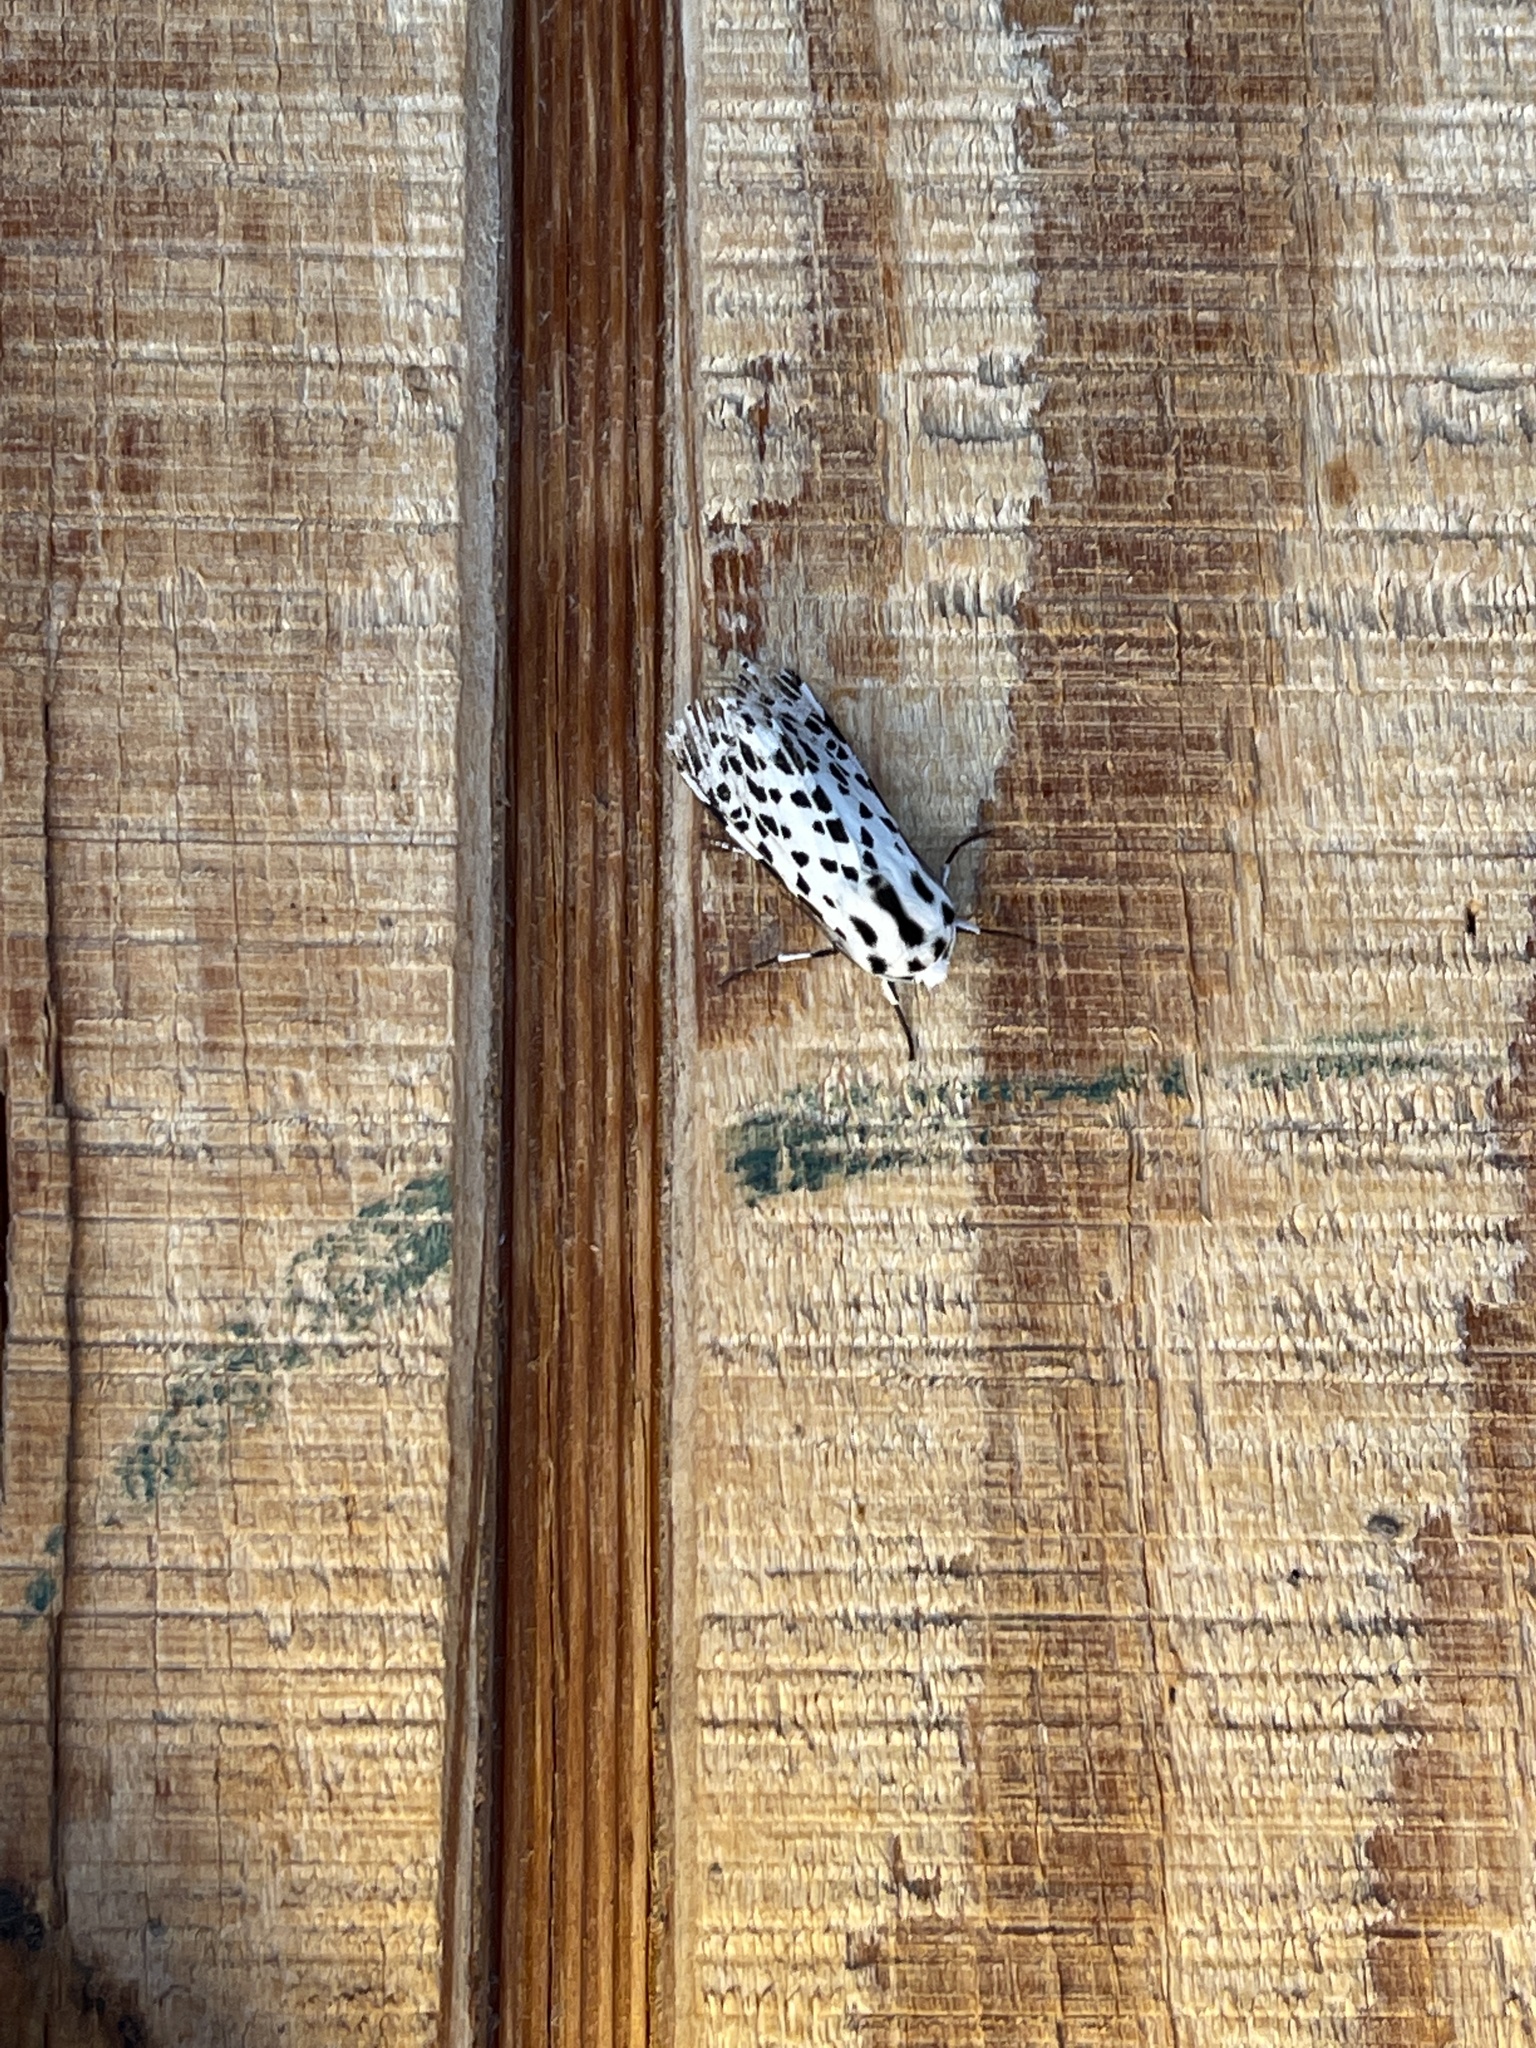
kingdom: Animalia
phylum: Arthropoda
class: Insecta
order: Lepidoptera
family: Erebidae
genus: Hypercompe
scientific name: Hypercompe permaculata
